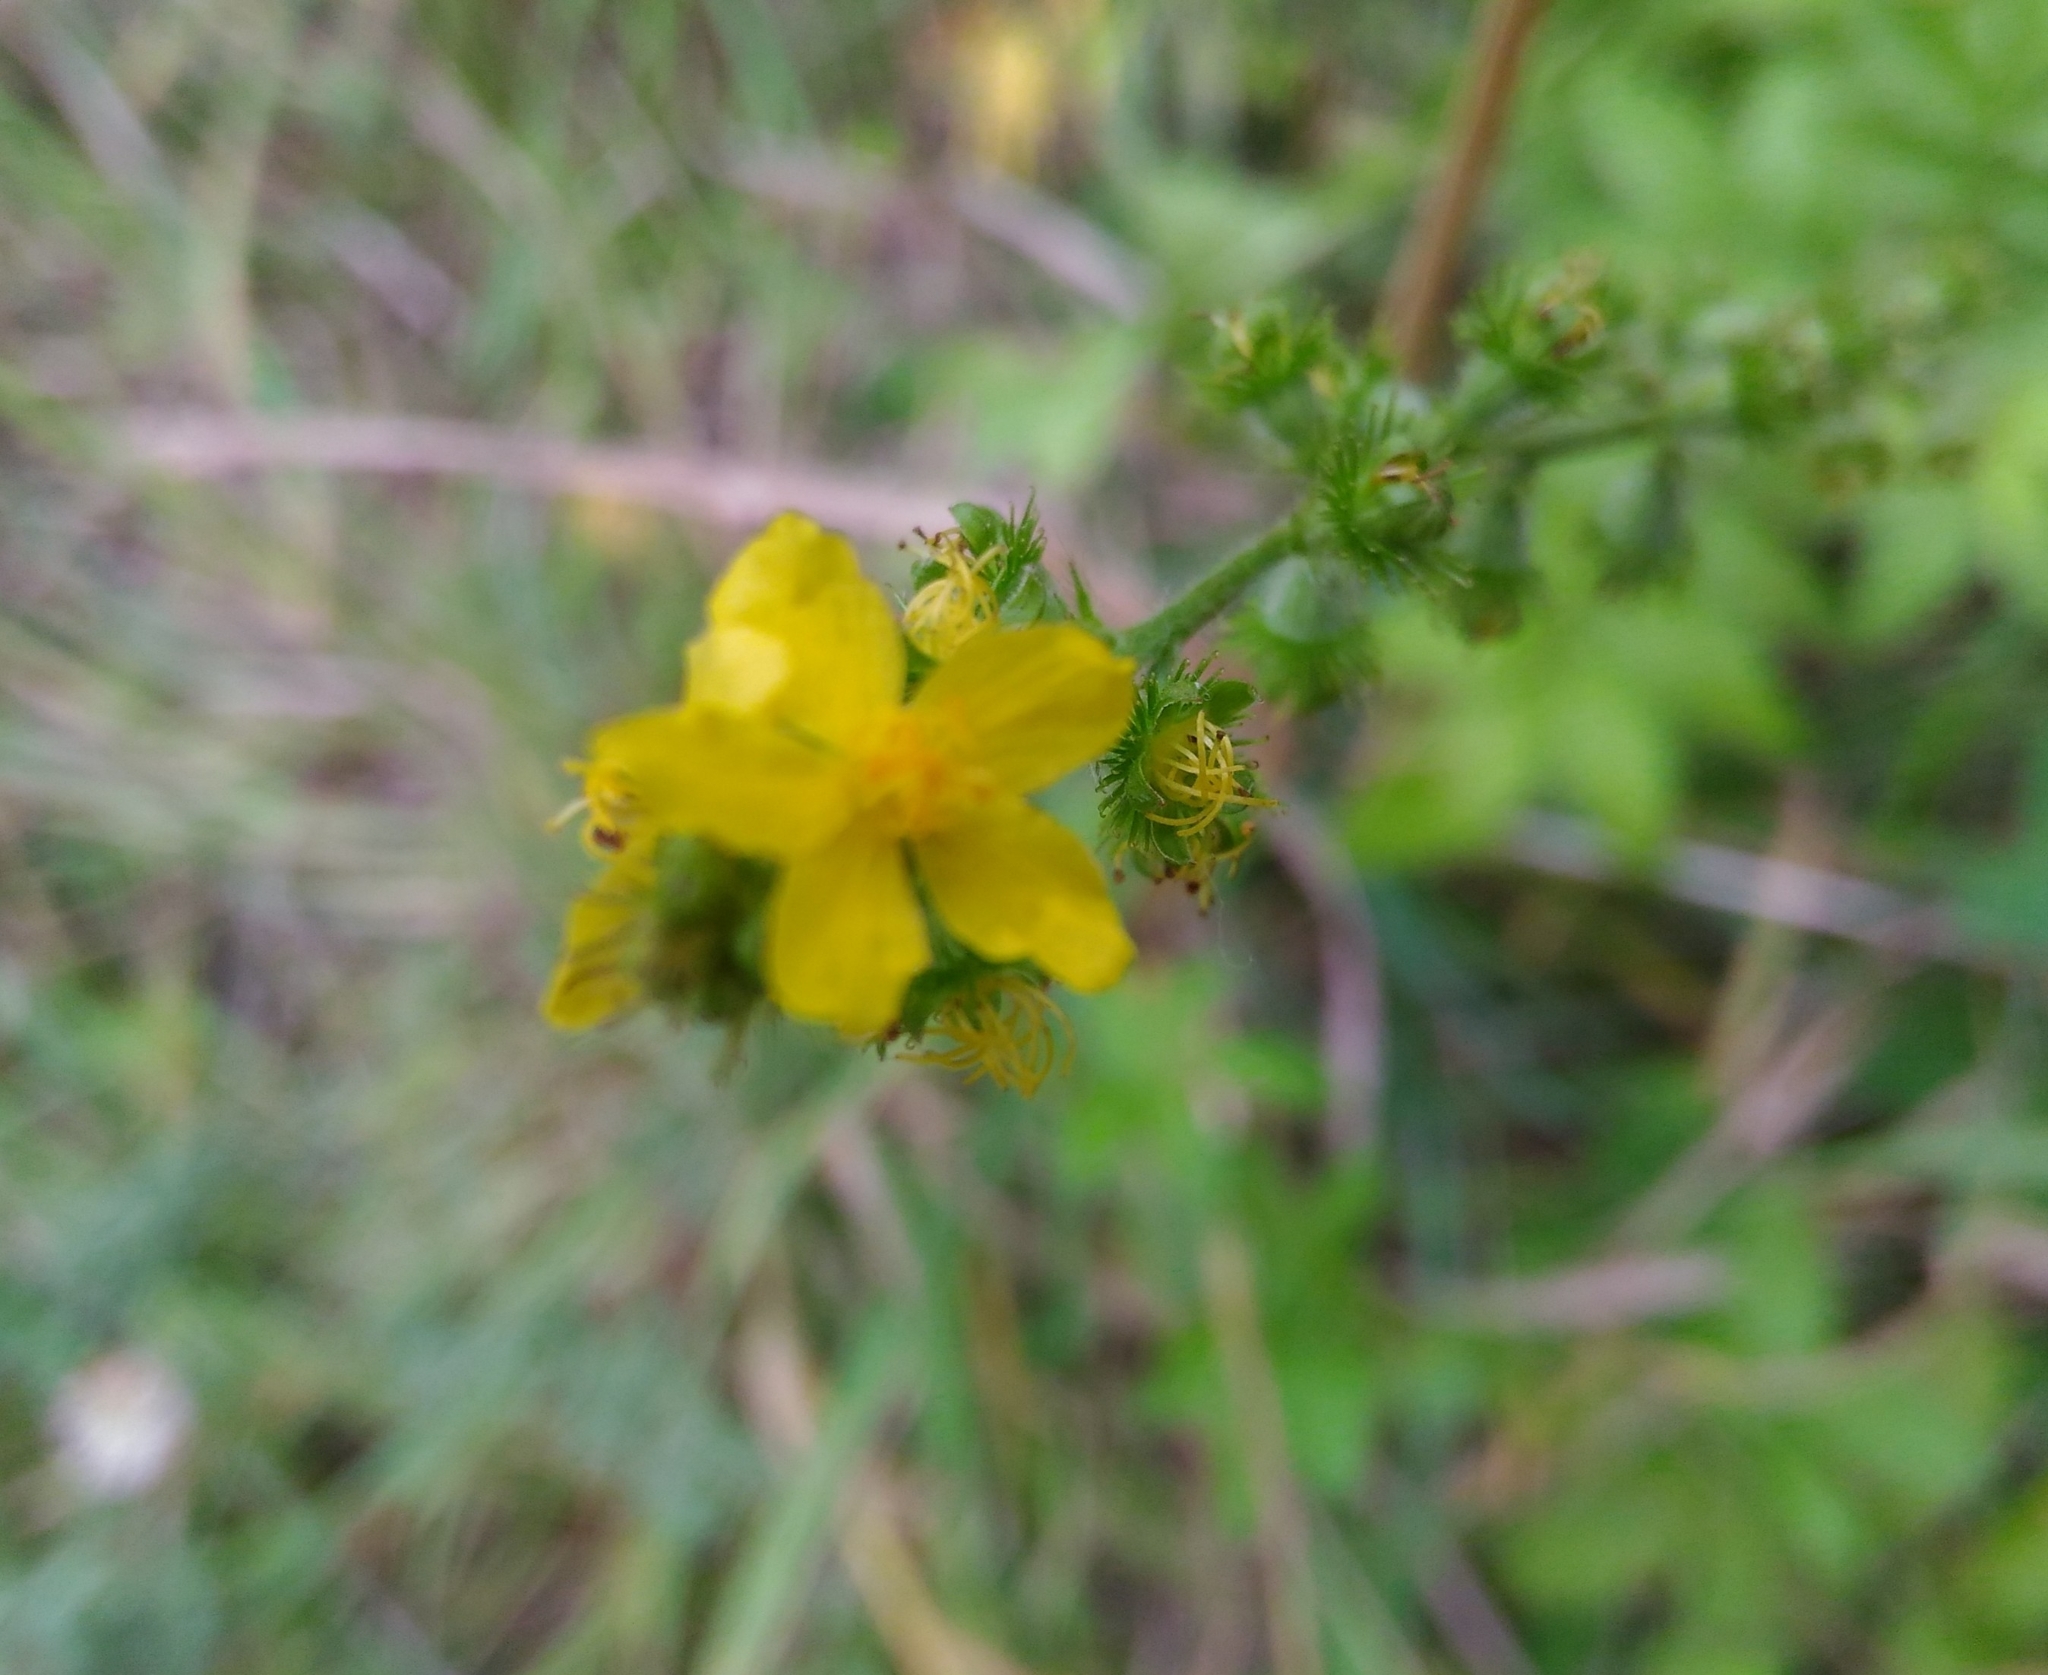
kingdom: Plantae
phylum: Tracheophyta
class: Magnoliopsida
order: Rosales
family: Rosaceae
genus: Agrimonia
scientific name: Agrimonia eupatoria
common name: Agrimony
